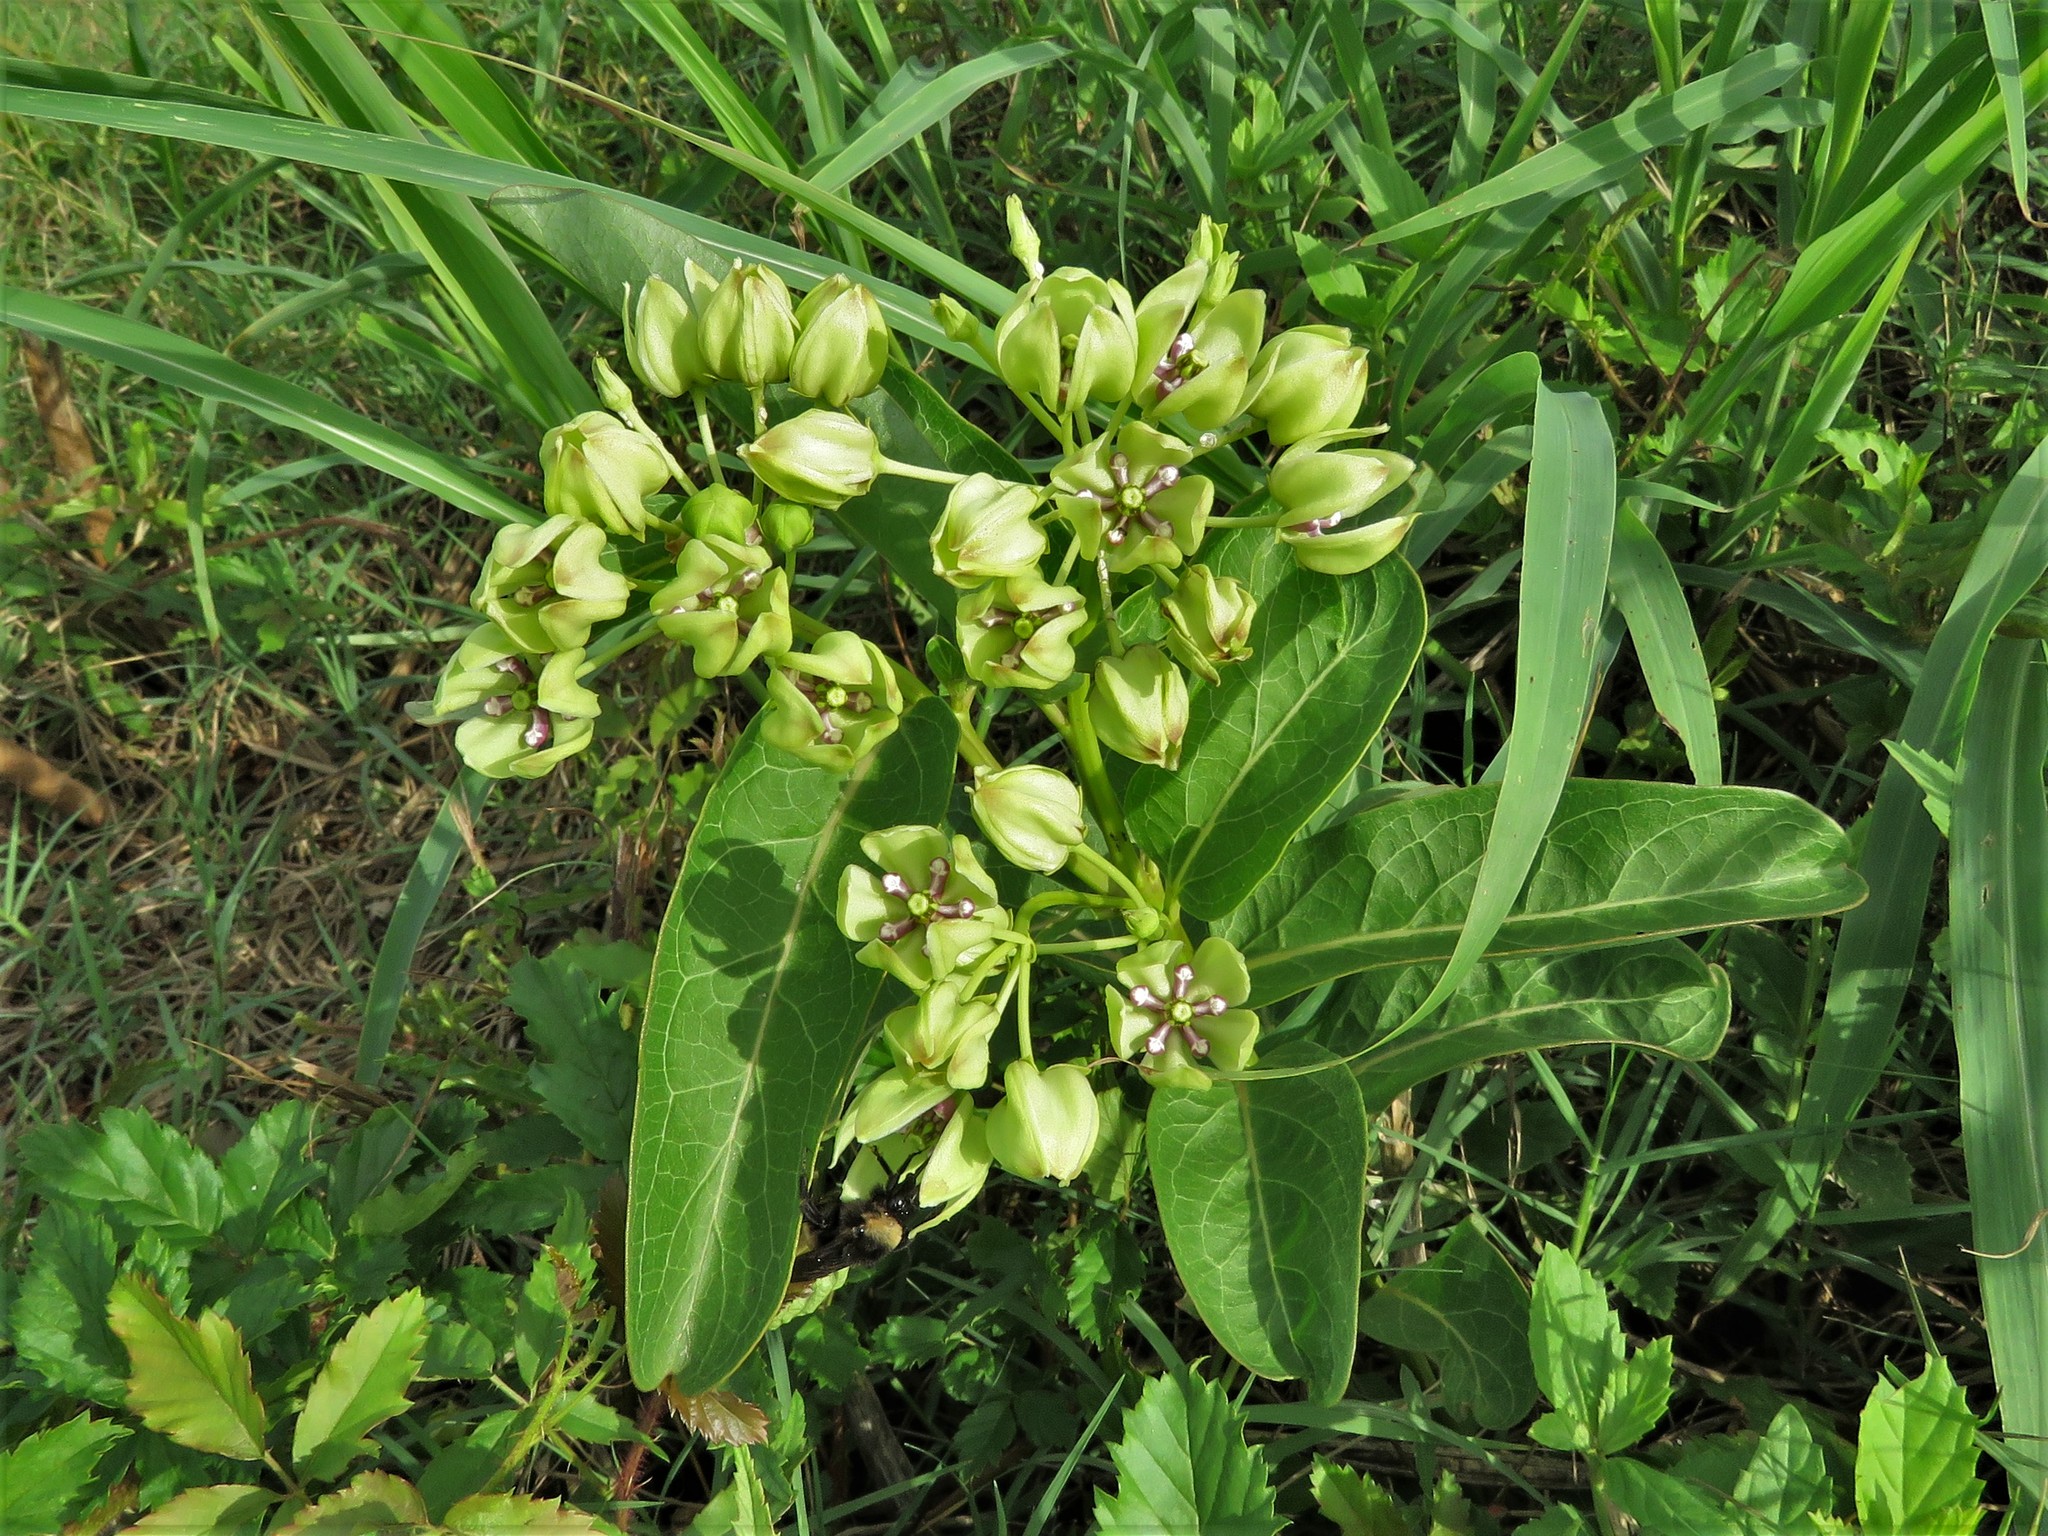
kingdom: Plantae
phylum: Tracheophyta
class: Magnoliopsida
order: Gentianales
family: Apocynaceae
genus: Asclepias
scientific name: Asclepias viridis
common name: Antelope-horns
